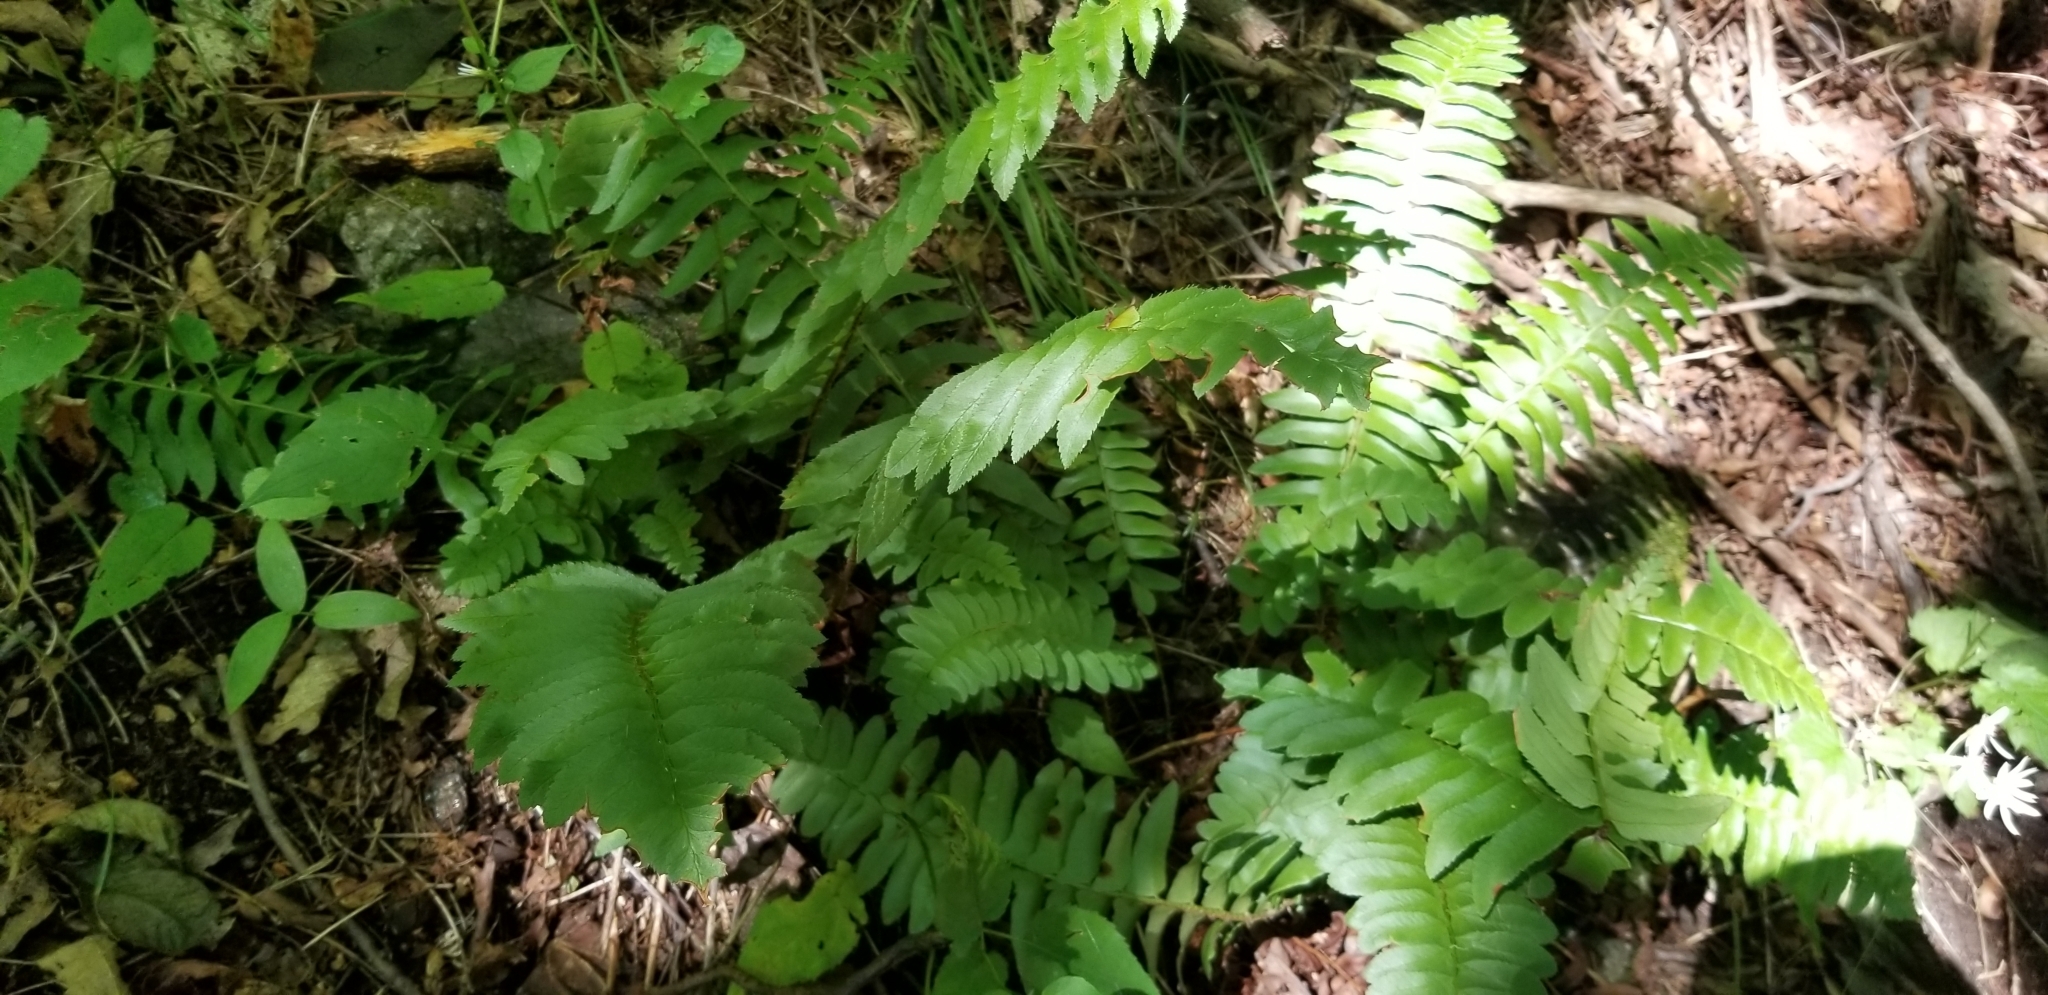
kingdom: Plantae
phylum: Tracheophyta
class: Polypodiopsida
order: Polypodiales
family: Dryopteridaceae
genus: Polystichum
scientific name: Polystichum acrostichoides
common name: Christmas fern
